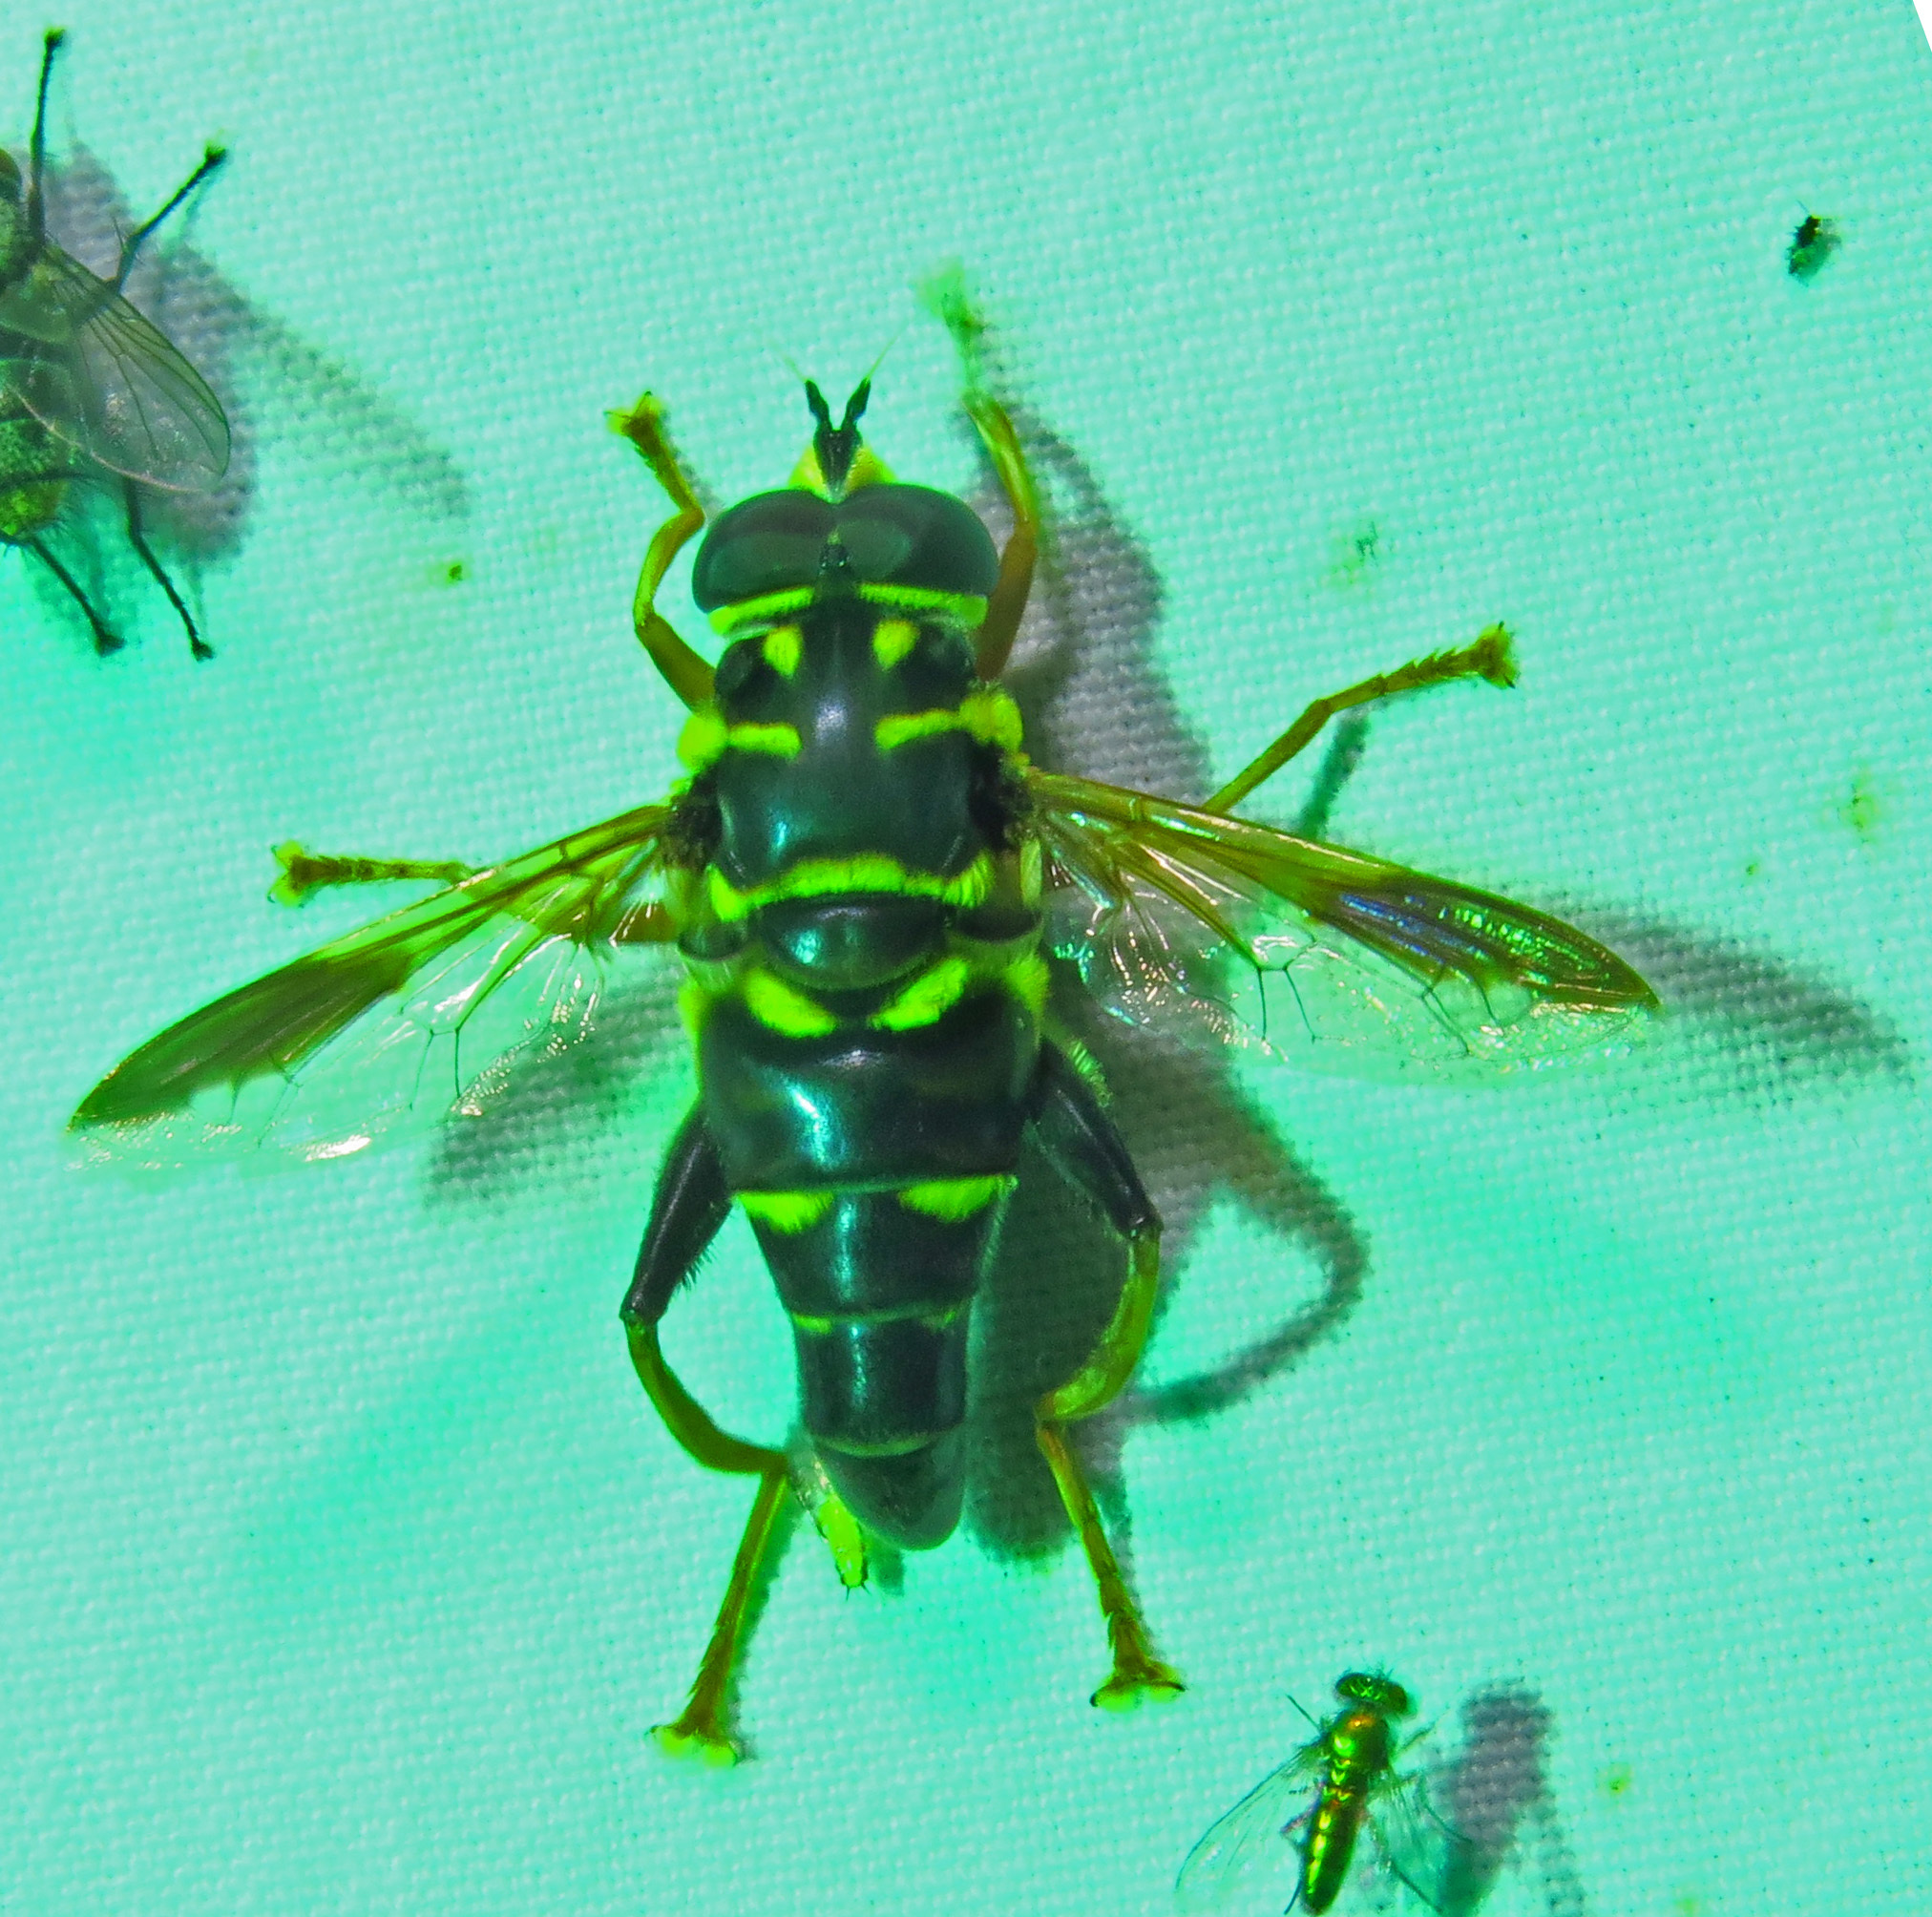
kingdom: Animalia
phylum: Arthropoda
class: Insecta
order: Diptera
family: Syrphidae
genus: Meromacrus
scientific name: Meromacrus acutus
